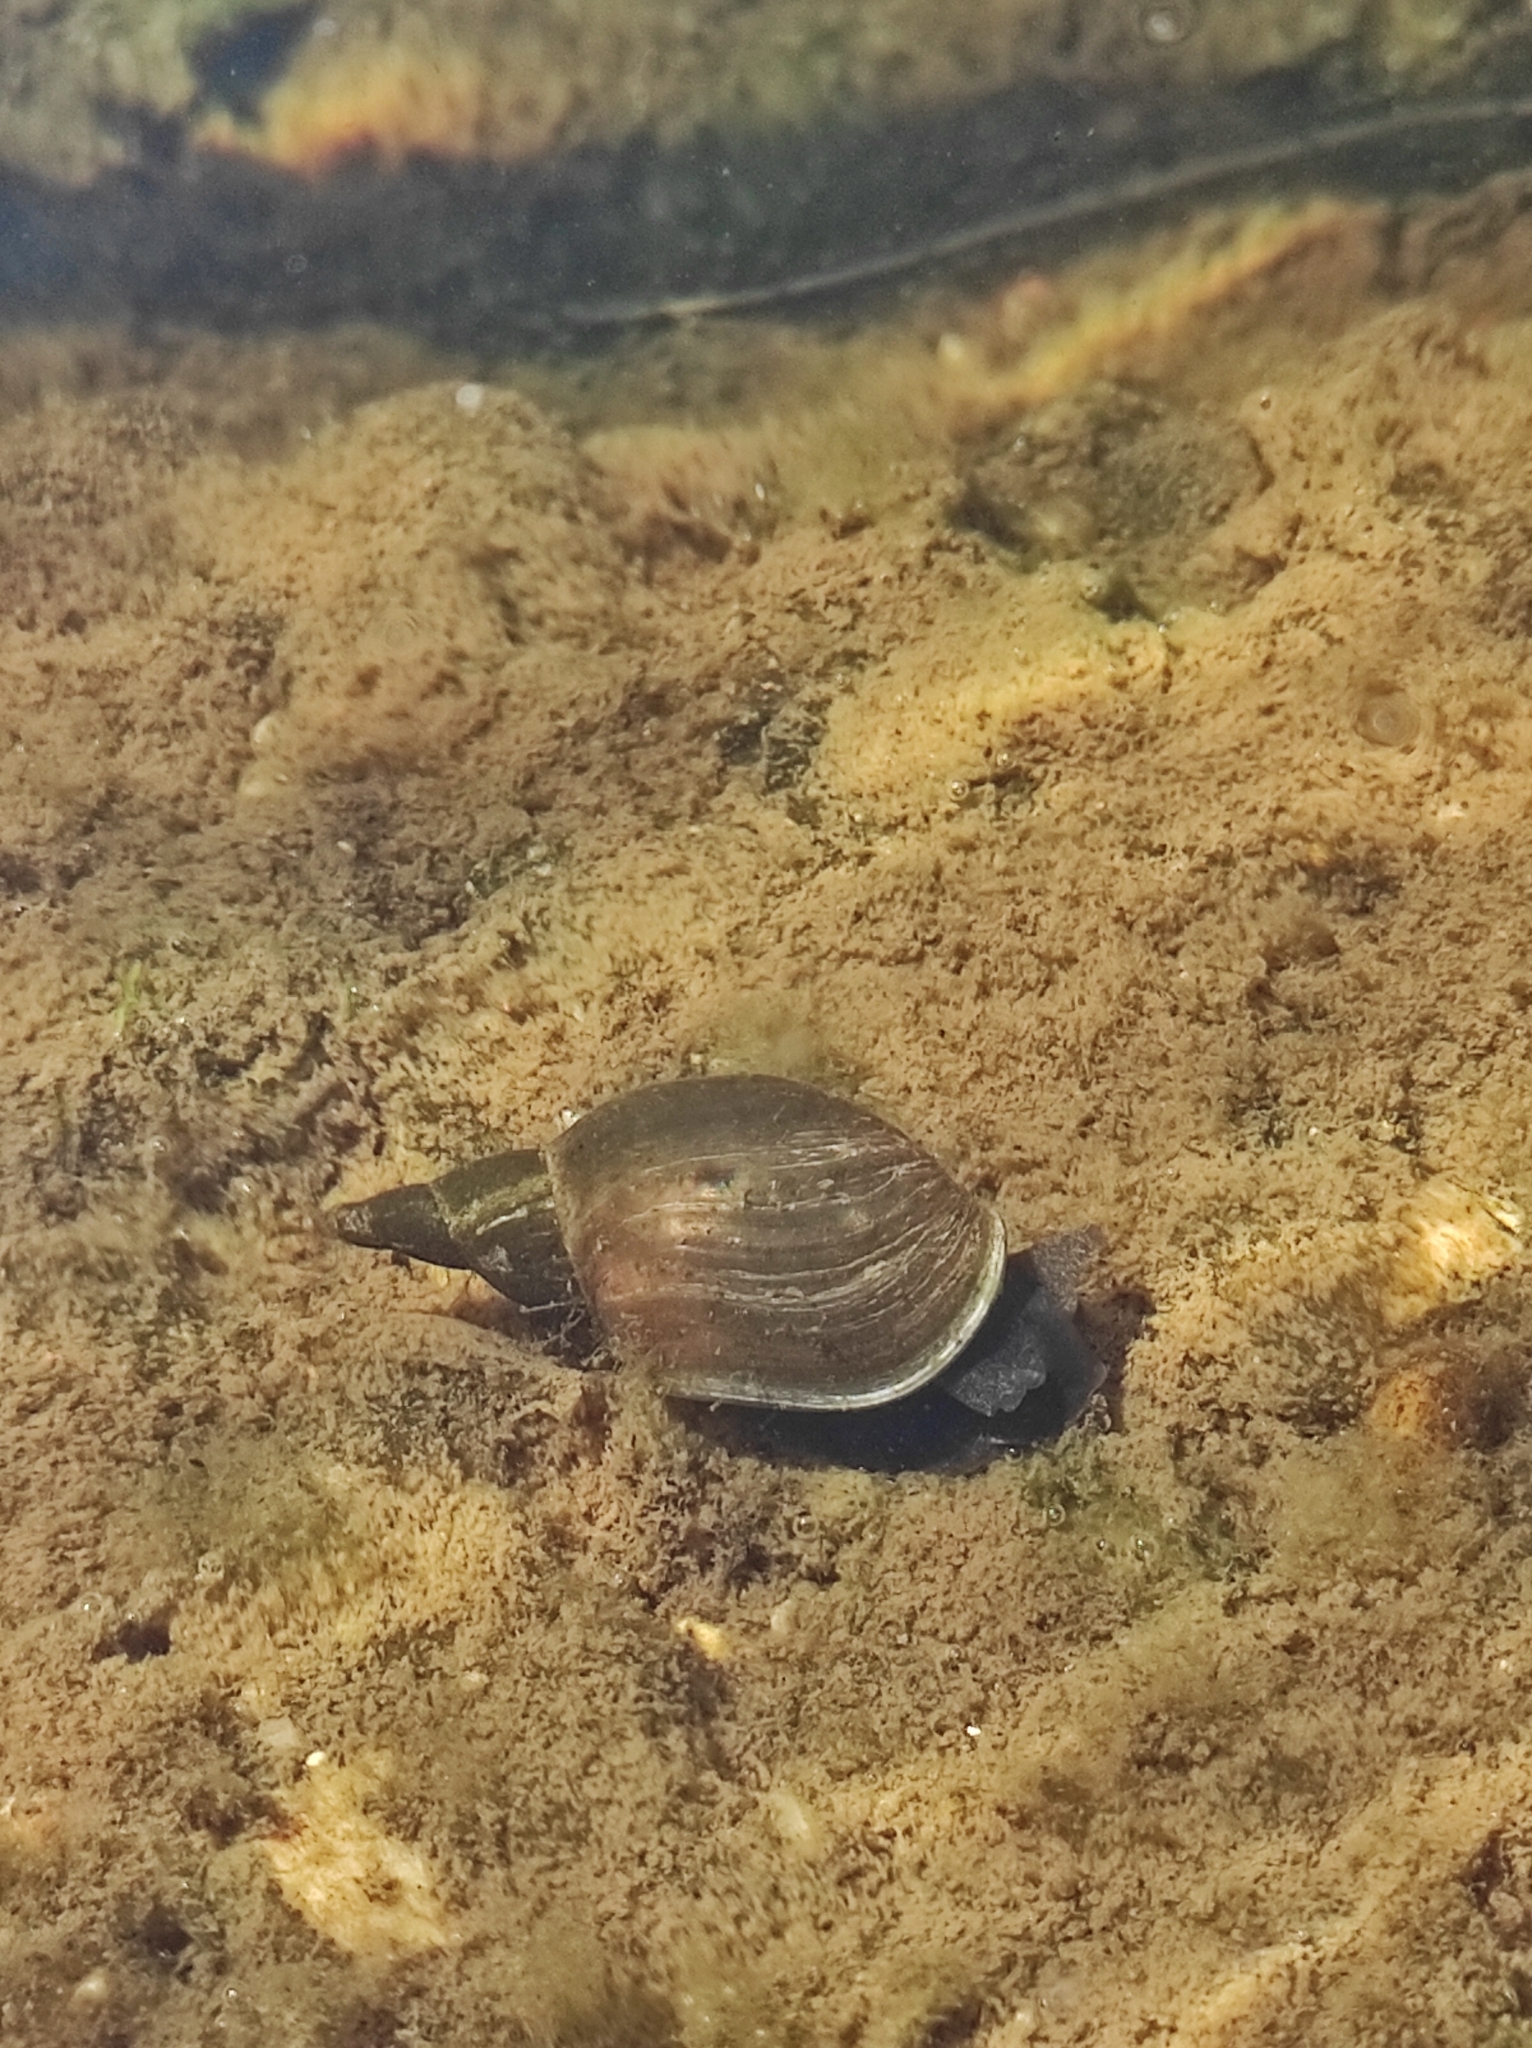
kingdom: Animalia
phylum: Mollusca
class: Gastropoda
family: Lymnaeidae
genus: Lymnaea
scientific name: Lymnaea stagnalis
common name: Great pond snail
